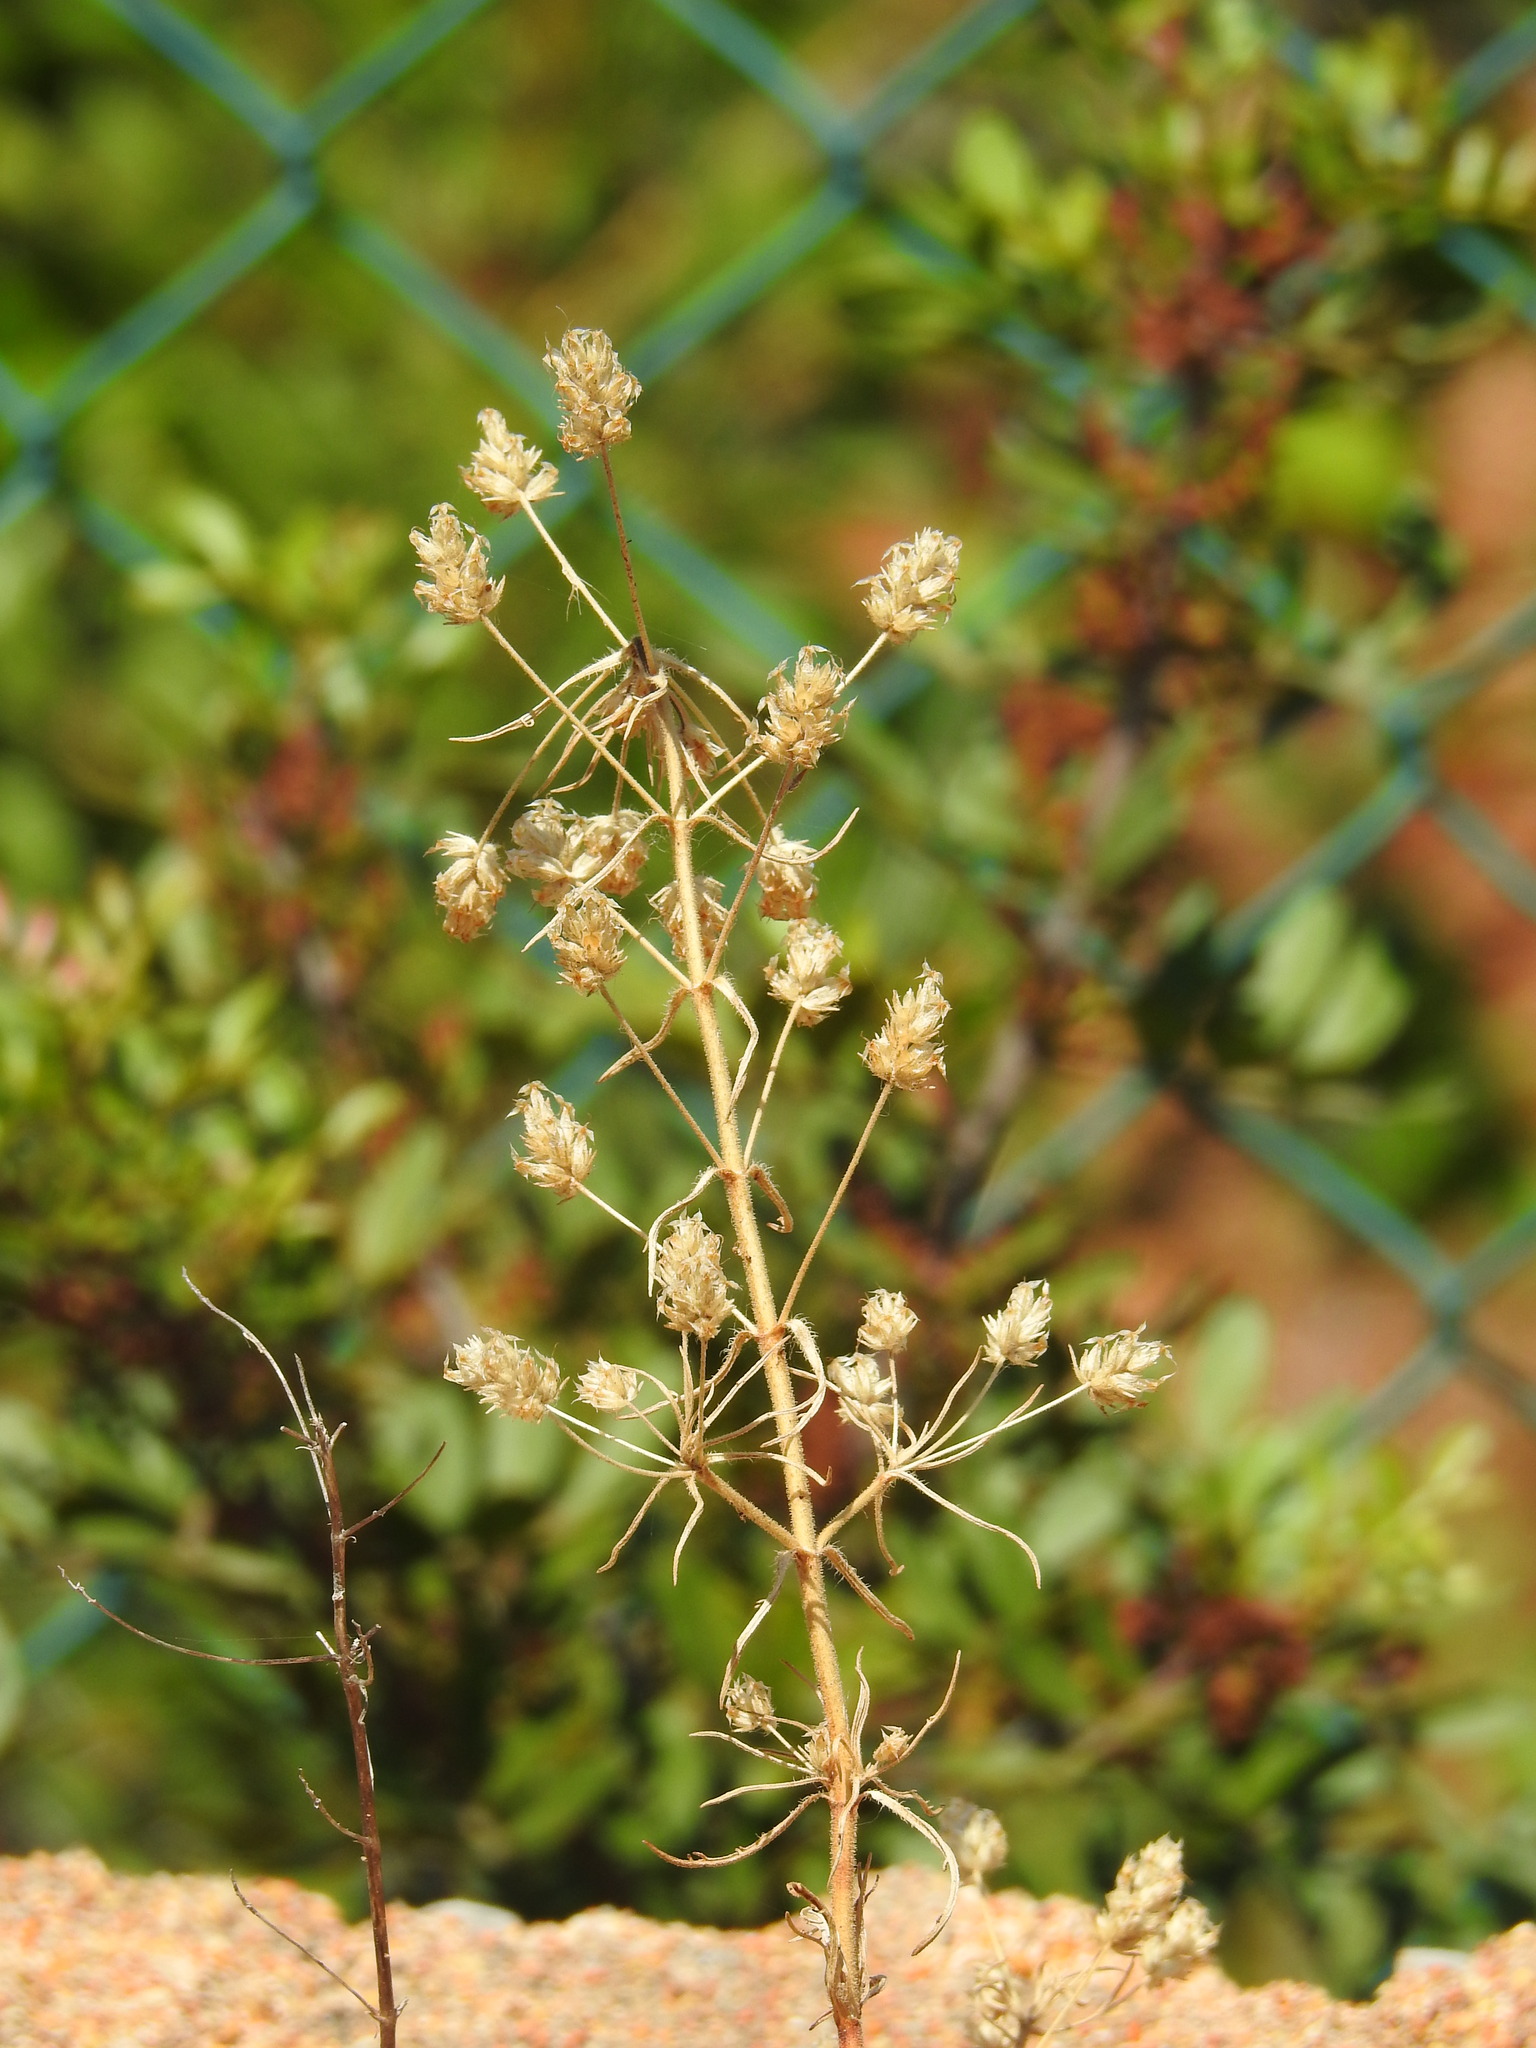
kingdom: Plantae
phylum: Tracheophyta
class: Magnoliopsida
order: Lamiales
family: Plantaginaceae
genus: Plantago
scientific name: Plantago afra
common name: Glandular plantain
